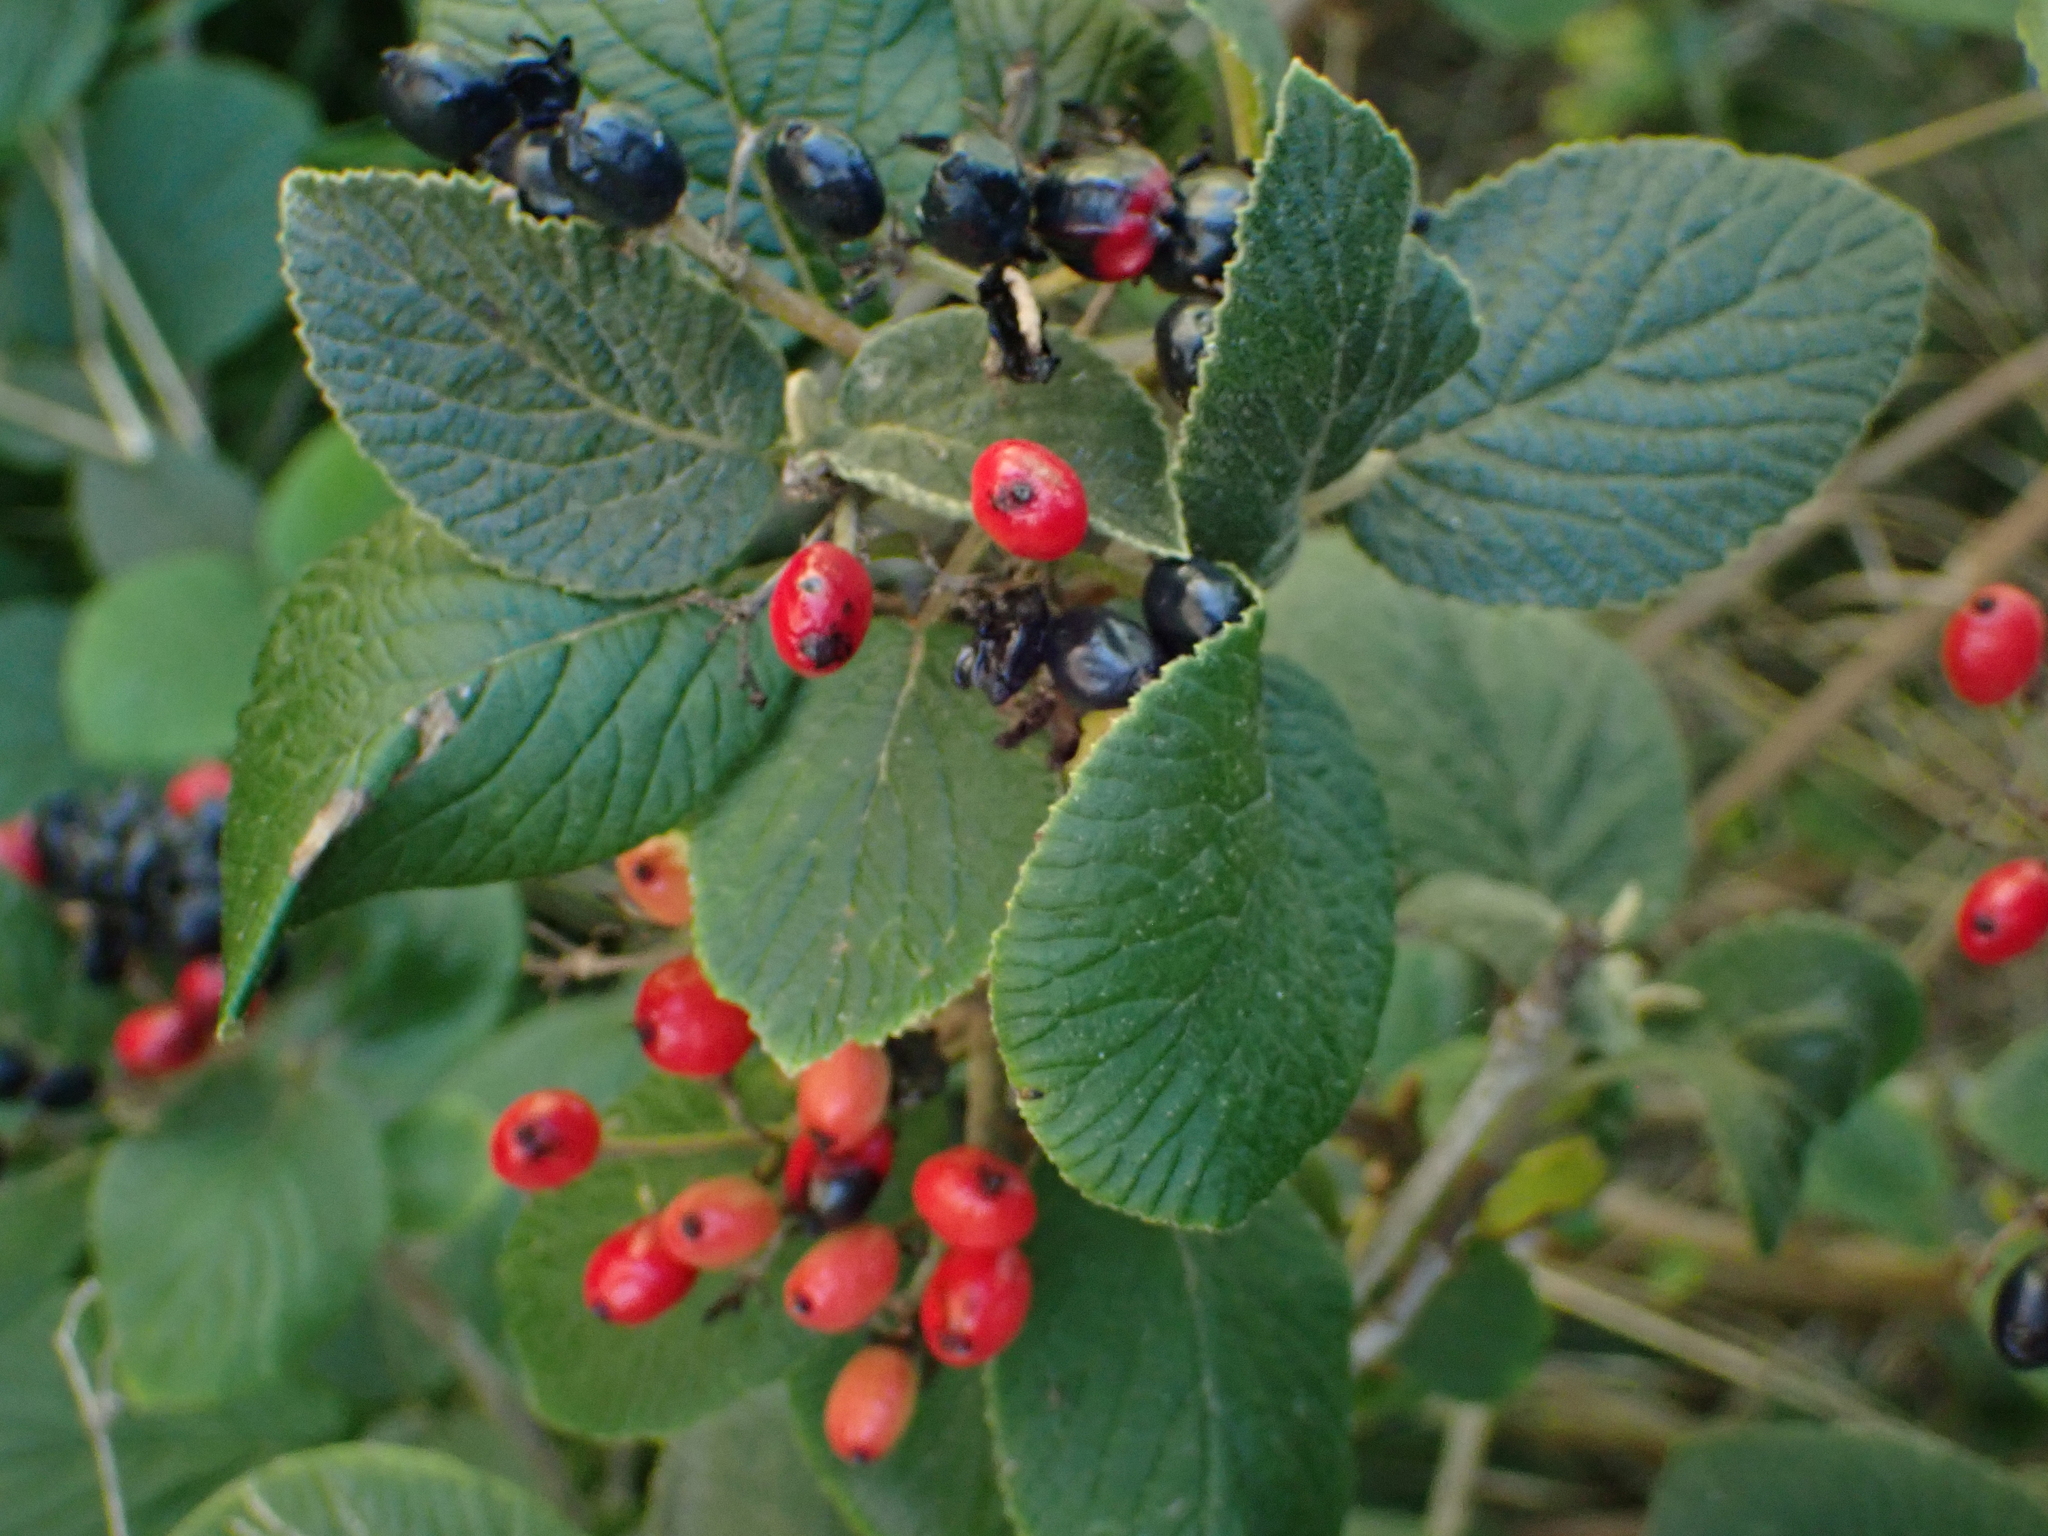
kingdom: Plantae
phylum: Tracheophyta
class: Magnoliopsida
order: Dipsacales
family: Viburnaceae
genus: Viburnum
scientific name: Viburnum lantana
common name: Wayfaring tree
